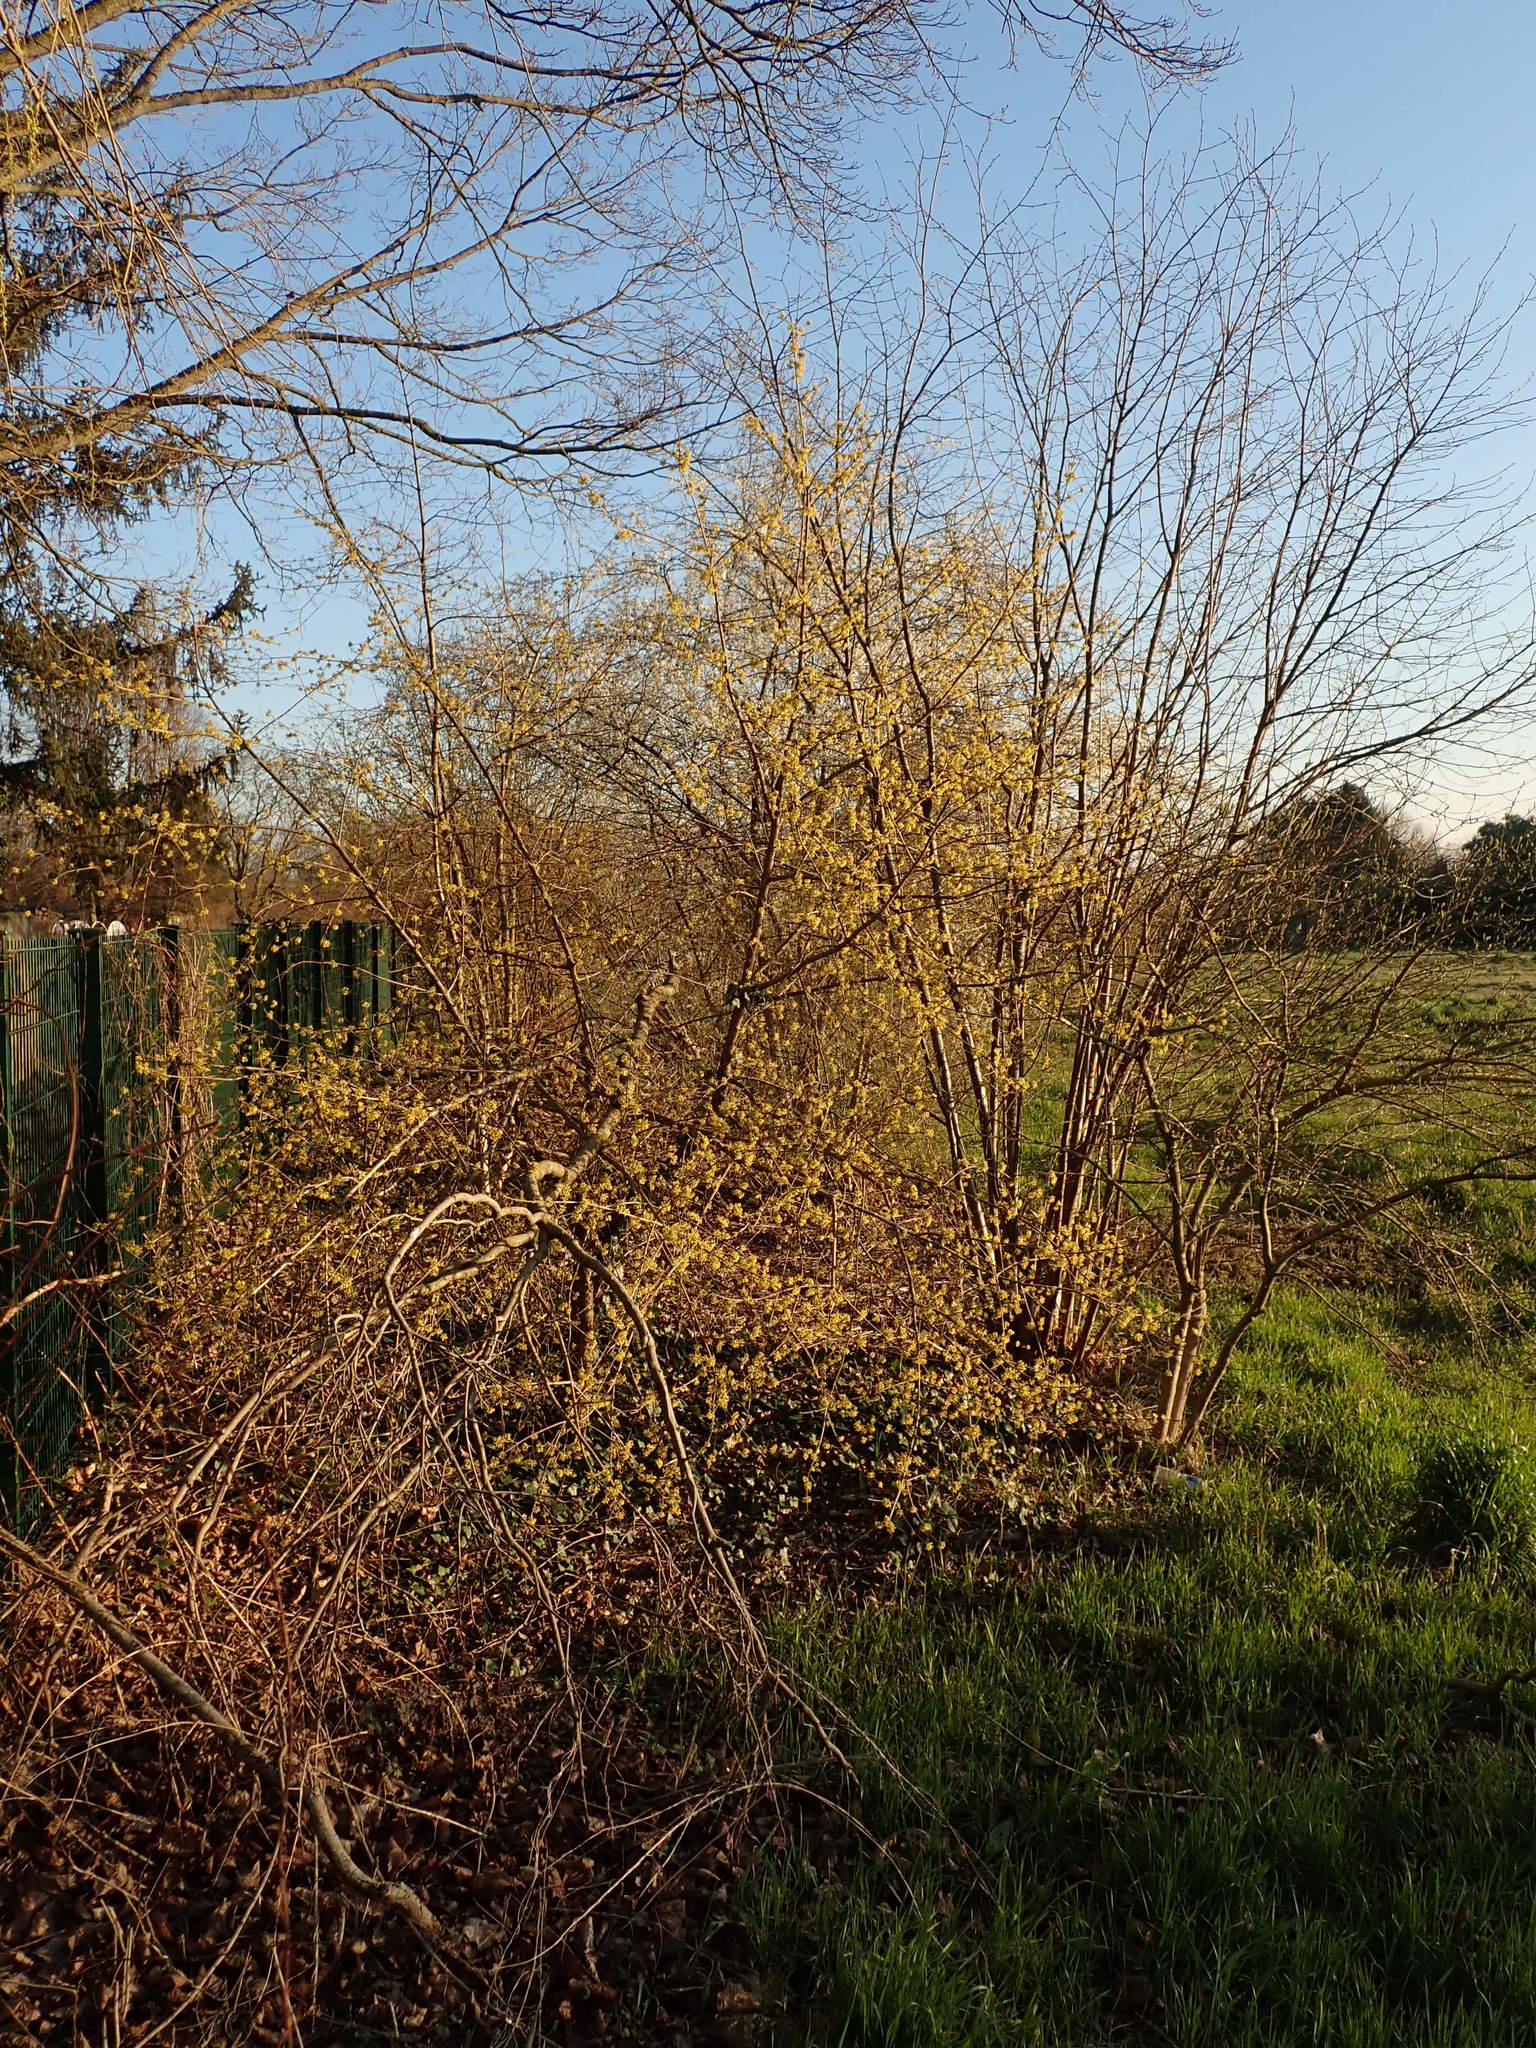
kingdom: Plantae
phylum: Tracheophyta
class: Magnoliopsida
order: Cornales
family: Cornaceae
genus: Cornus
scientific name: Cornus mas
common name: Cornelian-cherry
